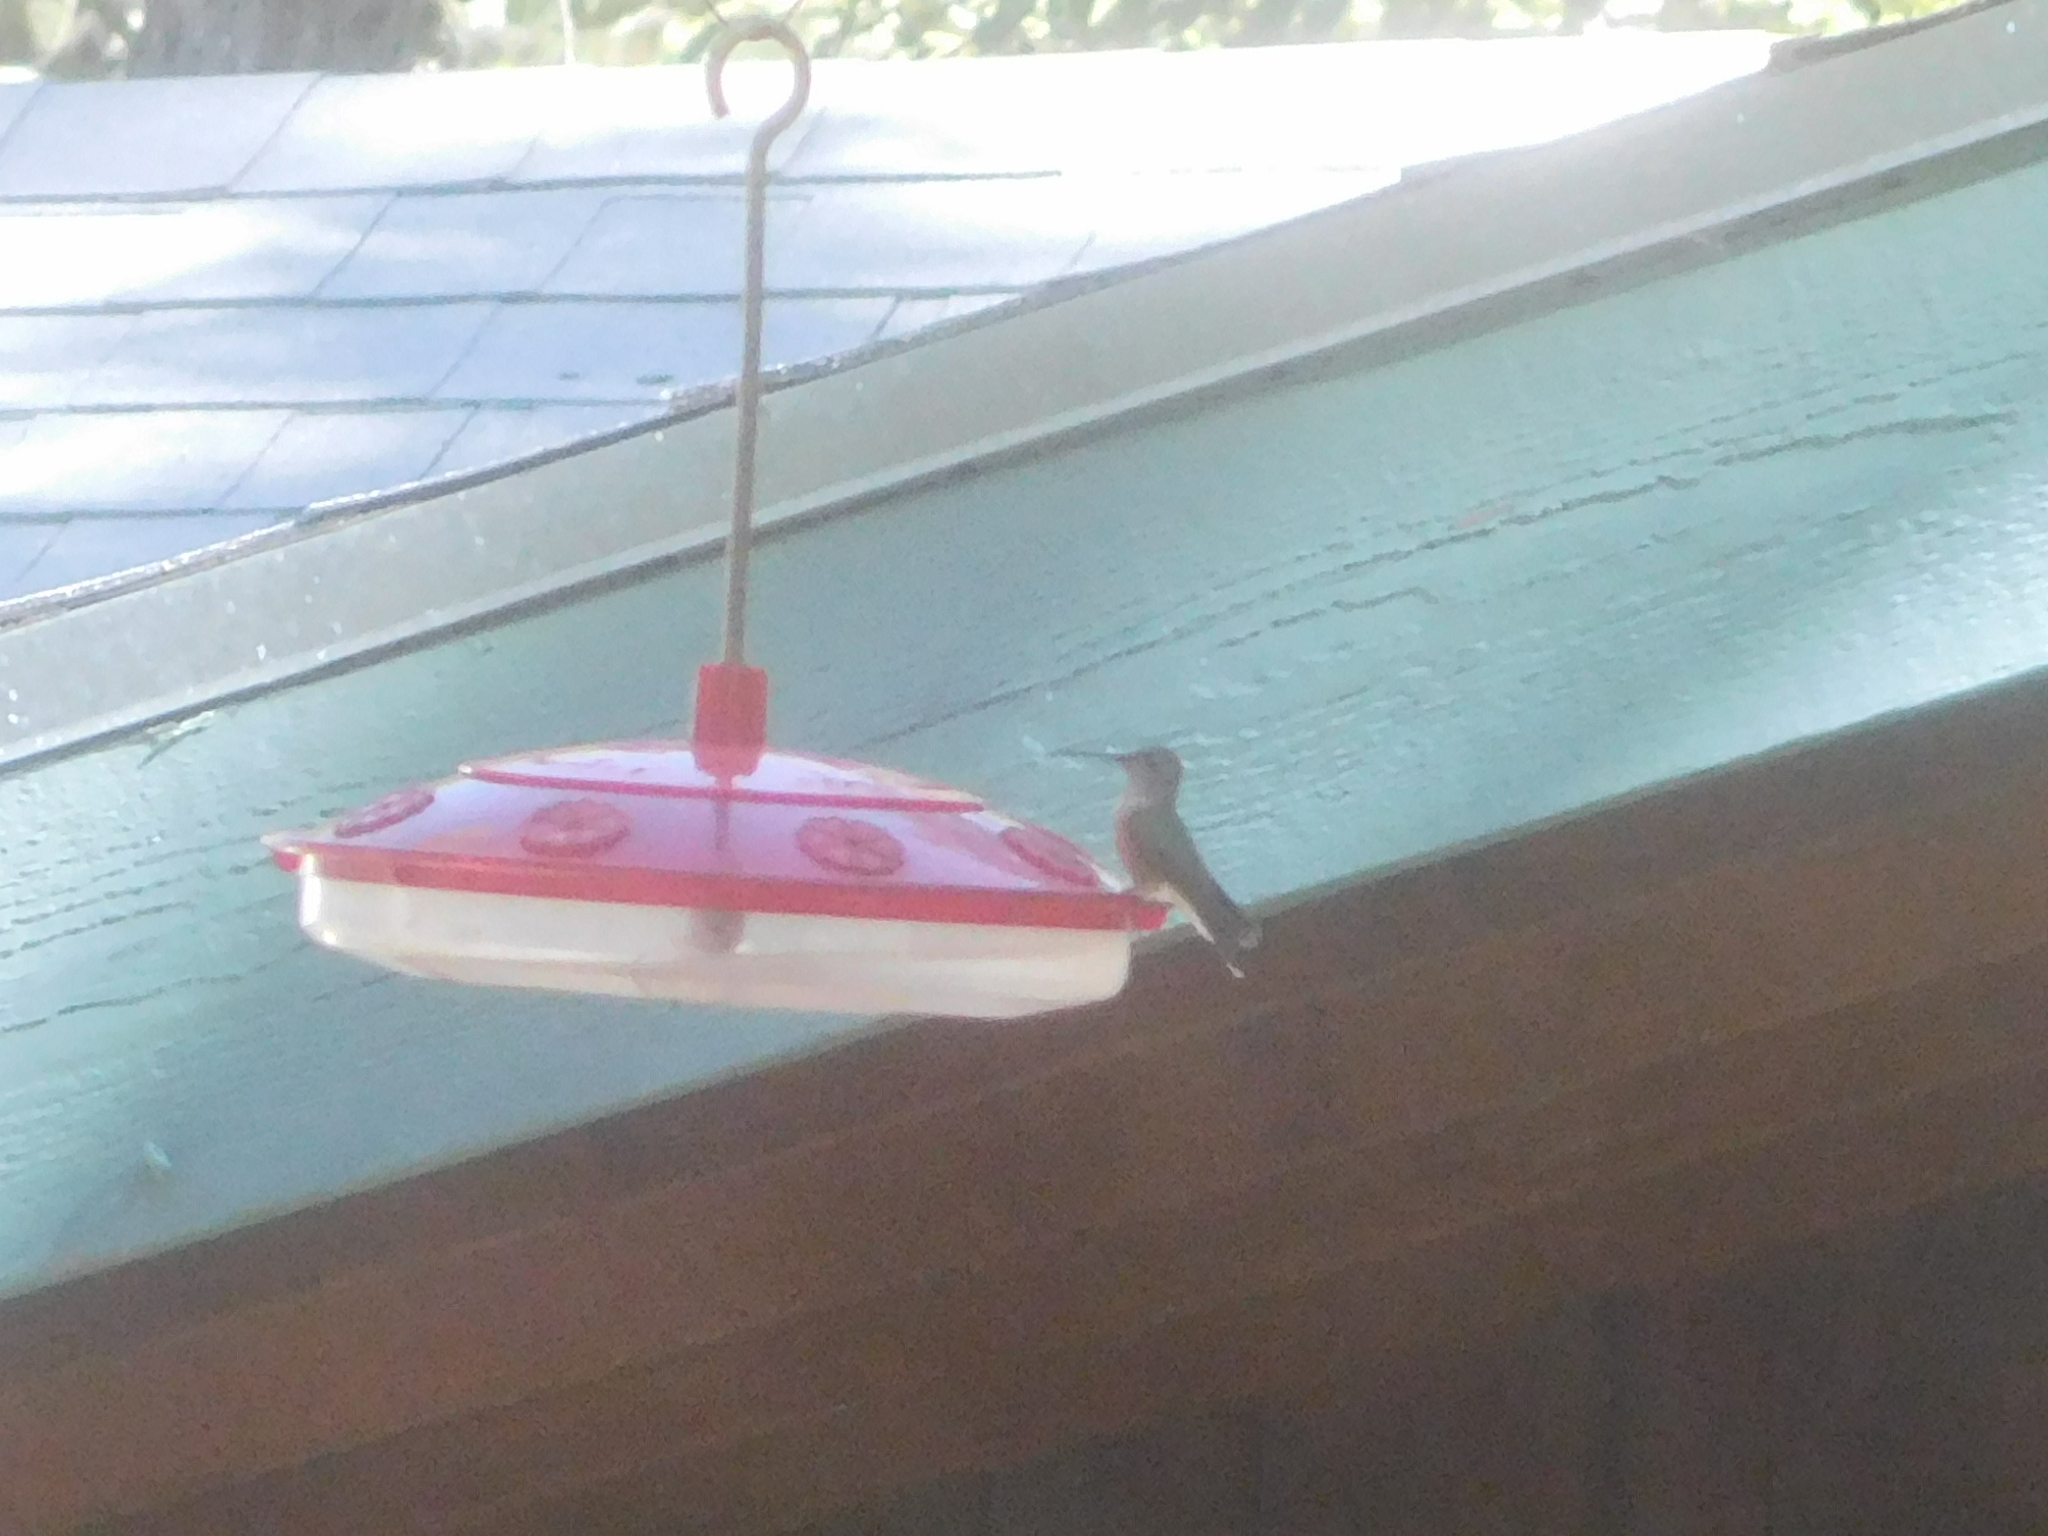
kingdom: Animalia
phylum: Chordata
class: Aves
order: Apodiformes
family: Trochilidae
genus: Selasphorus
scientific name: Selasphorus platycercus
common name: Broad-tailed hummingbird
